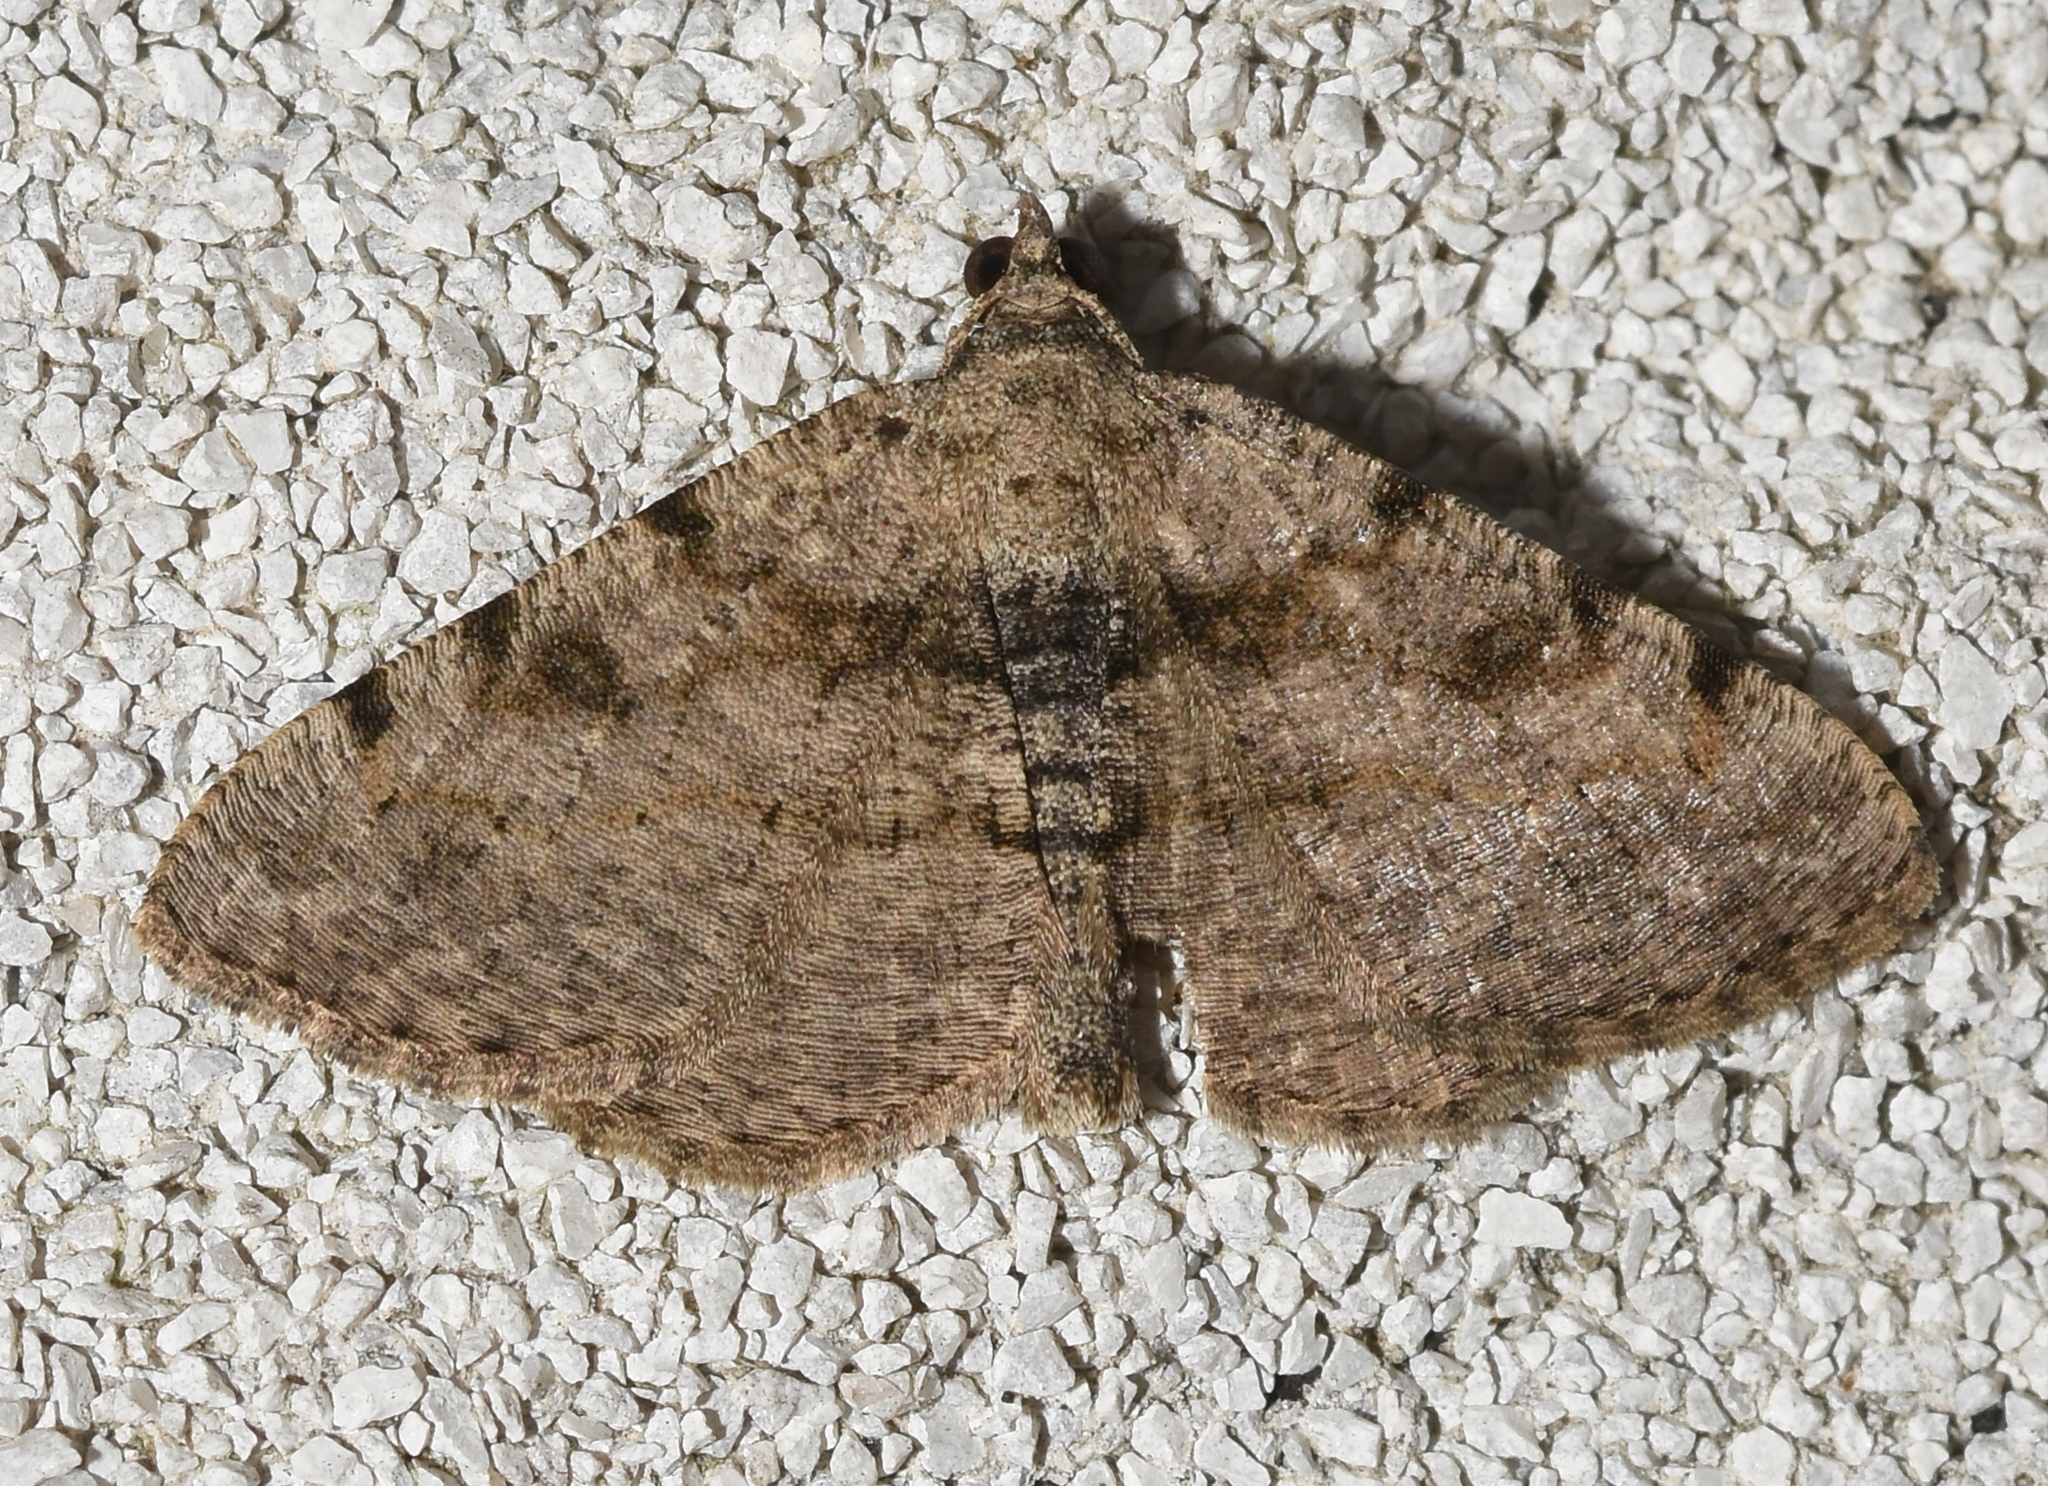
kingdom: Animalia
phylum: Arthropoda
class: Insecta
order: Lepidoptera
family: Geometridae
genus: Digrammia
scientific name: Digrammia gnophosaria
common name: Hollow-spotted angle
